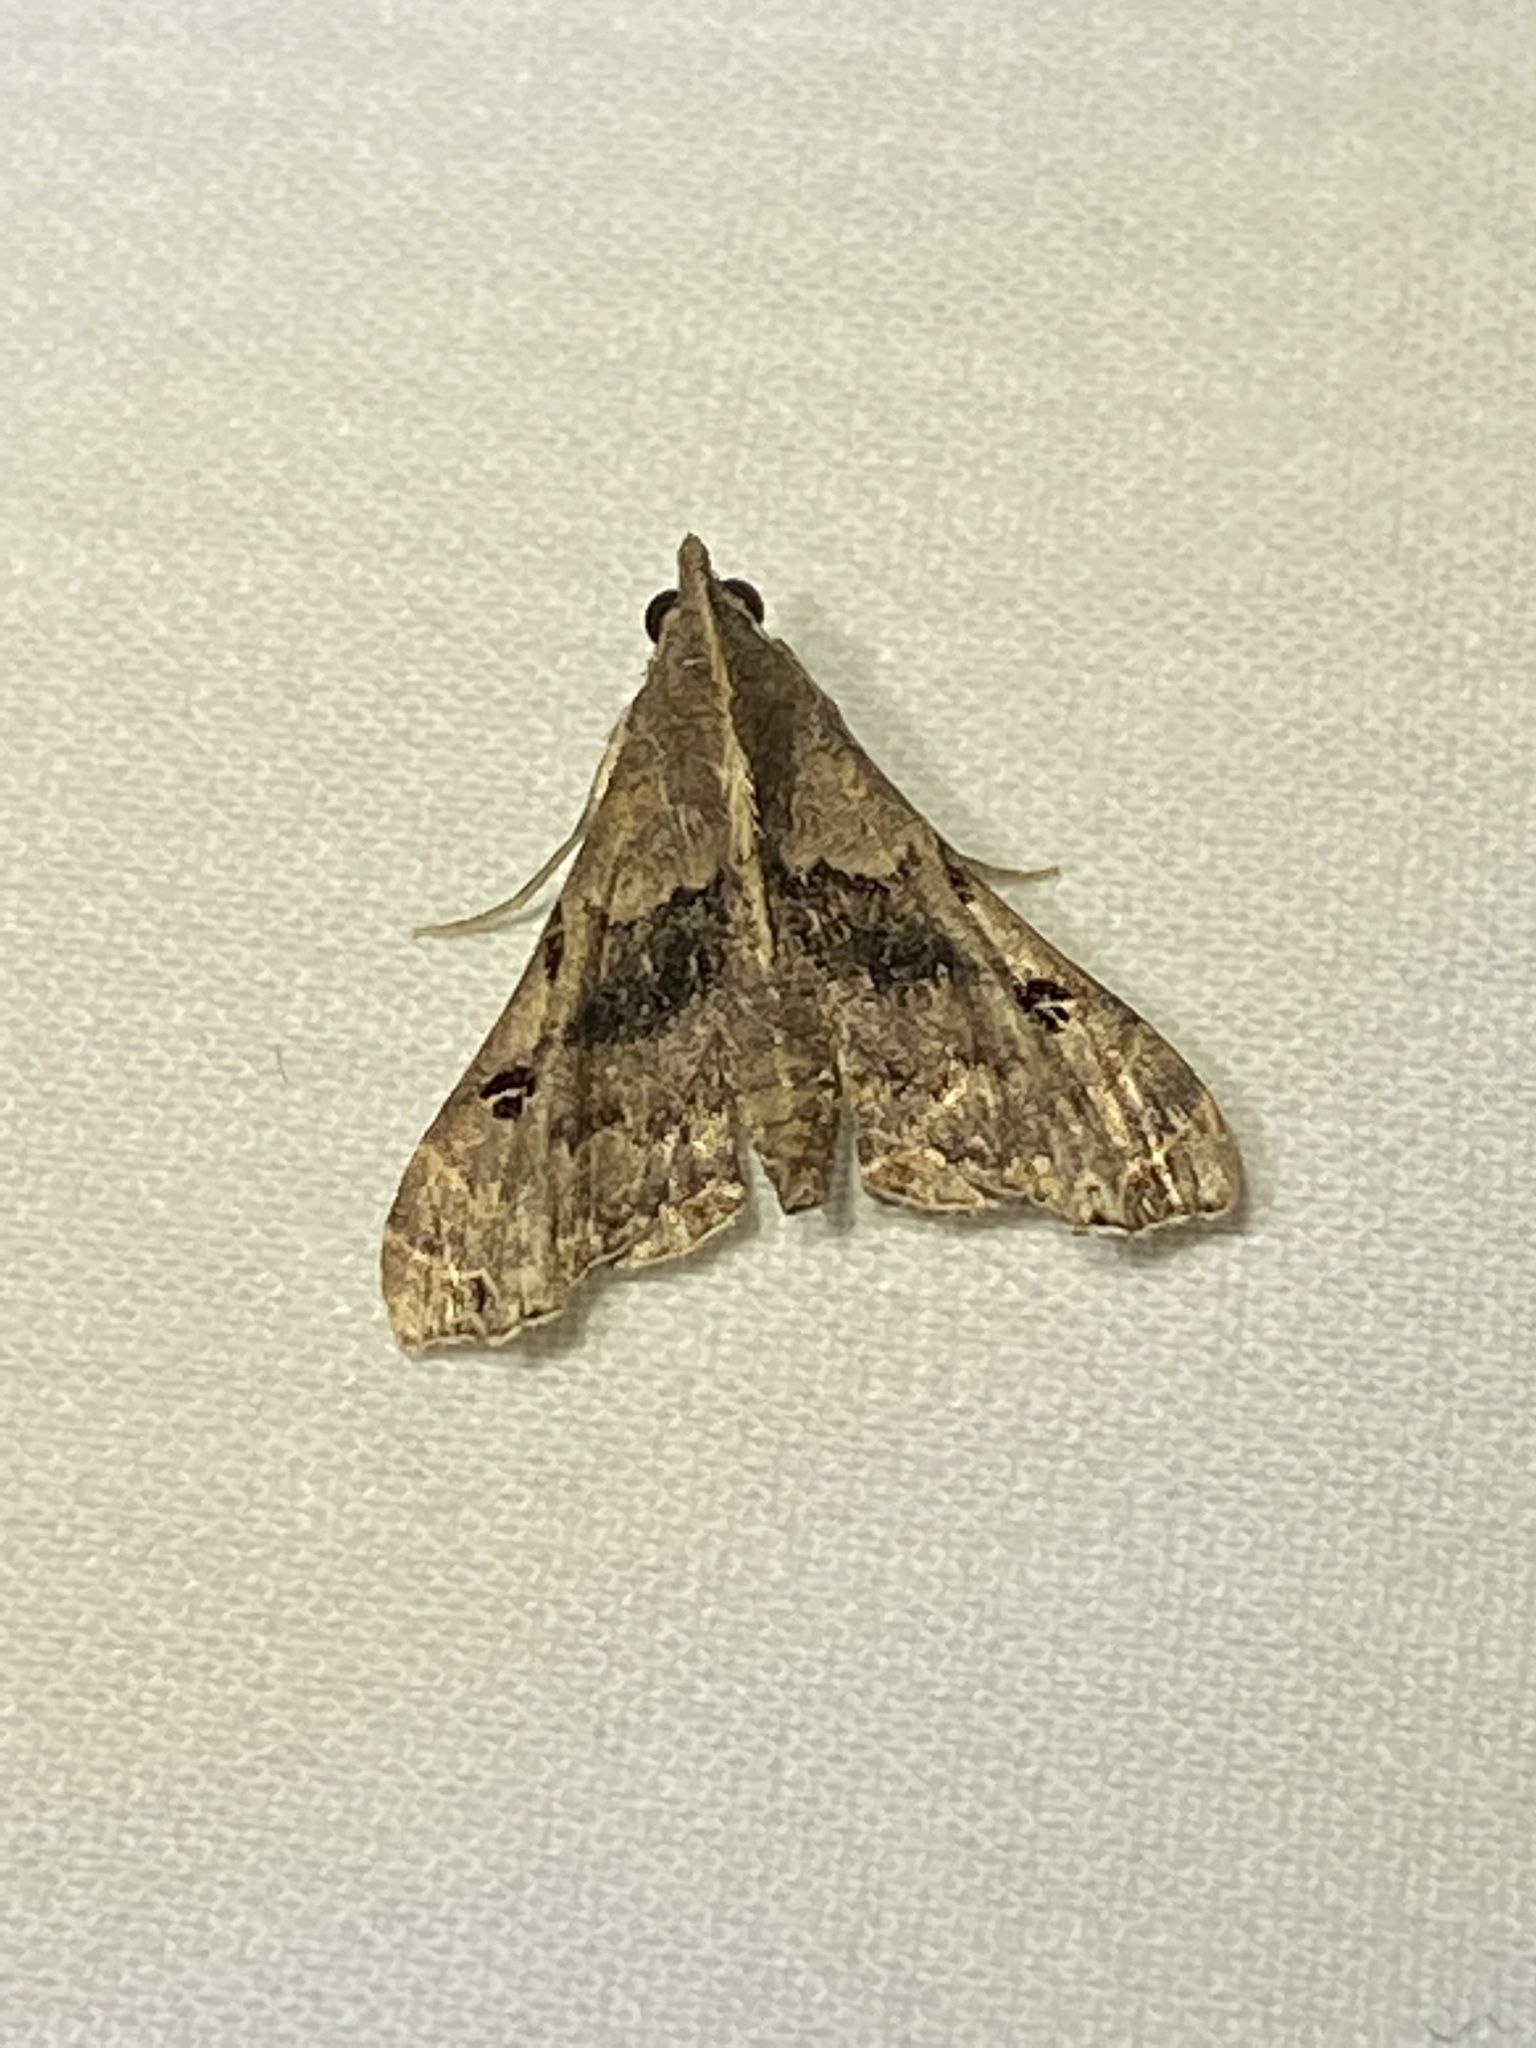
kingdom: Animalia
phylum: Arthropoda
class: Insecta
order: Lepidoptera
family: Erebidae
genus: Palthis
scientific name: Palthis asopialis
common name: Faint-spotted palthis moth
